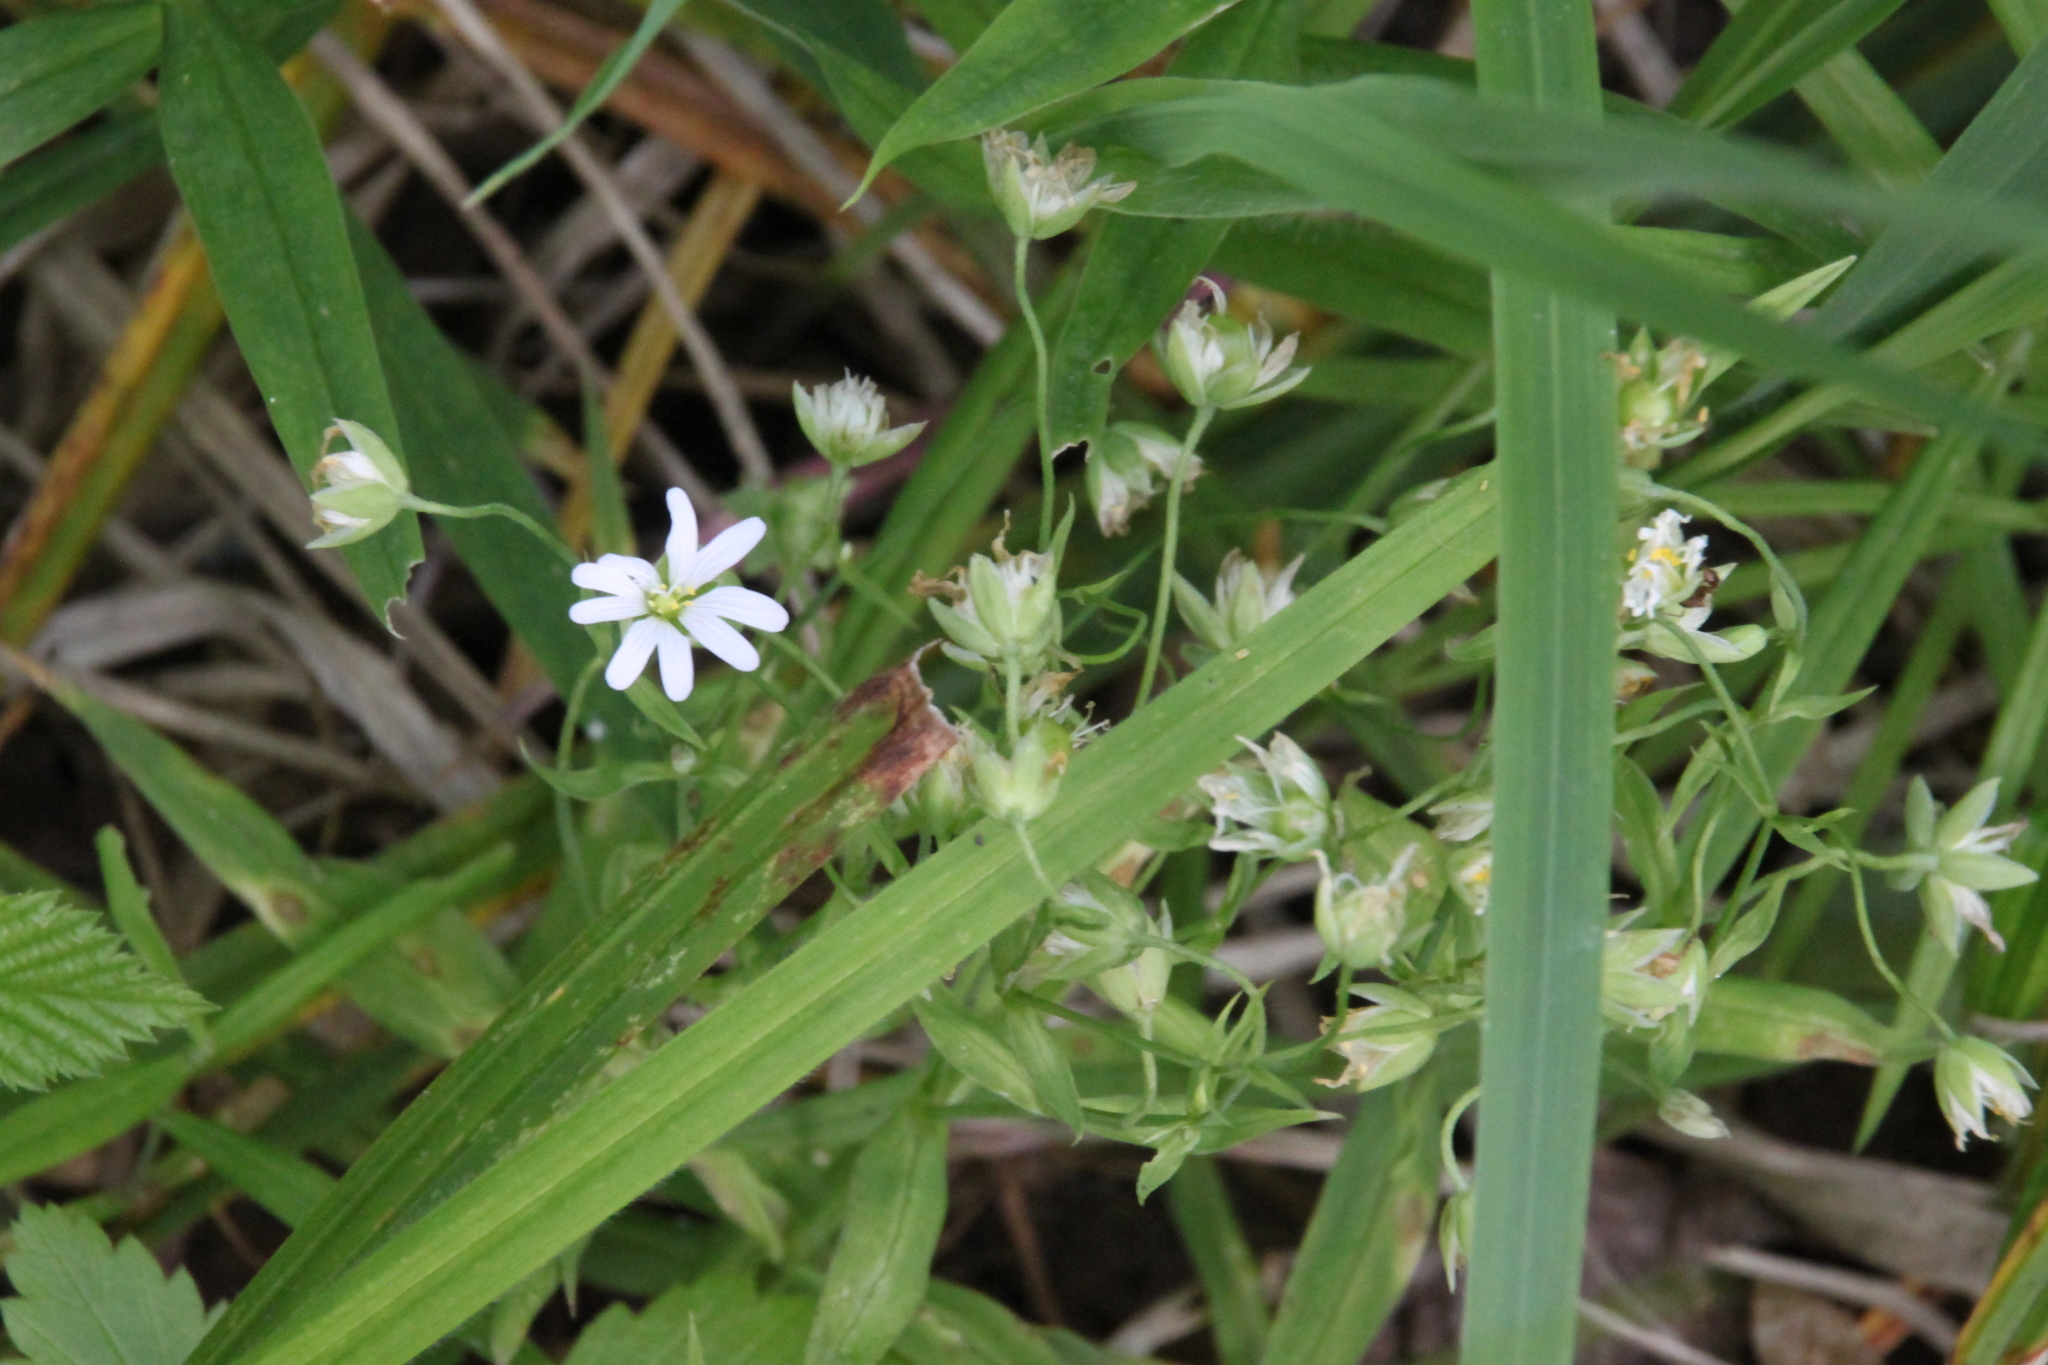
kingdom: Plantae
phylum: Tracheophyta
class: Magnoliopsida
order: Caryophyllales
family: Caryophyllaceae
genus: Rabelera
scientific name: Rabelera holostea
